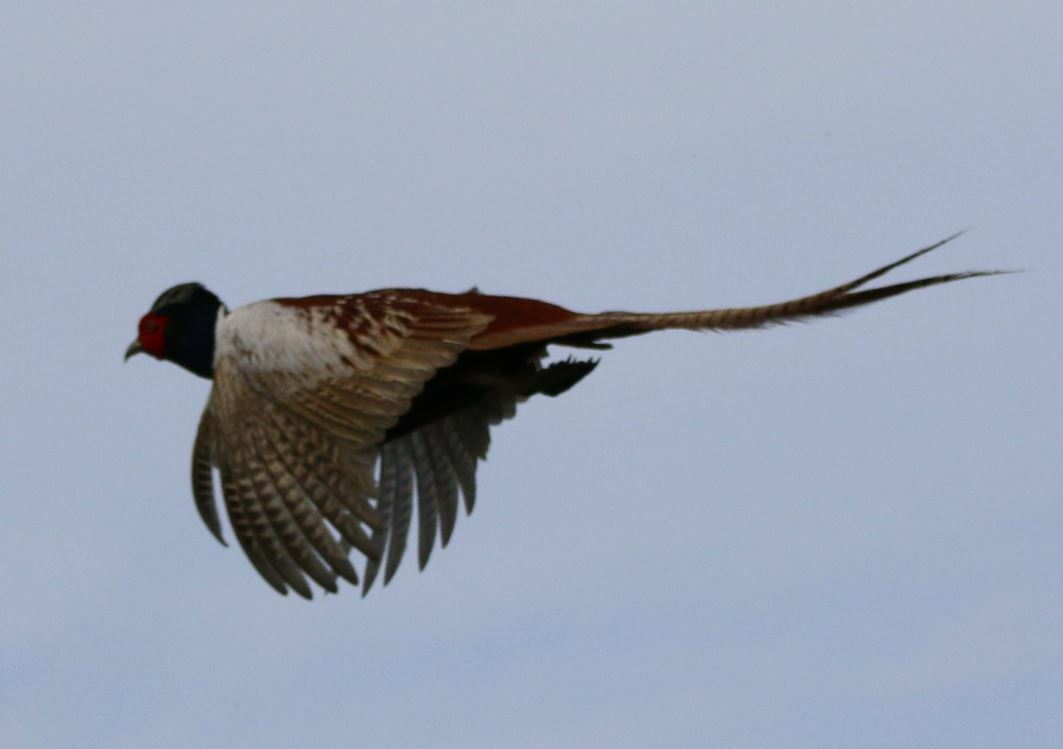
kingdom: Animalia
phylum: Chordata
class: Aves
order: Galliformes
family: Phasianidae
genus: Phasianus
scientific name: Phasianus colchicus
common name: Common pheasant
